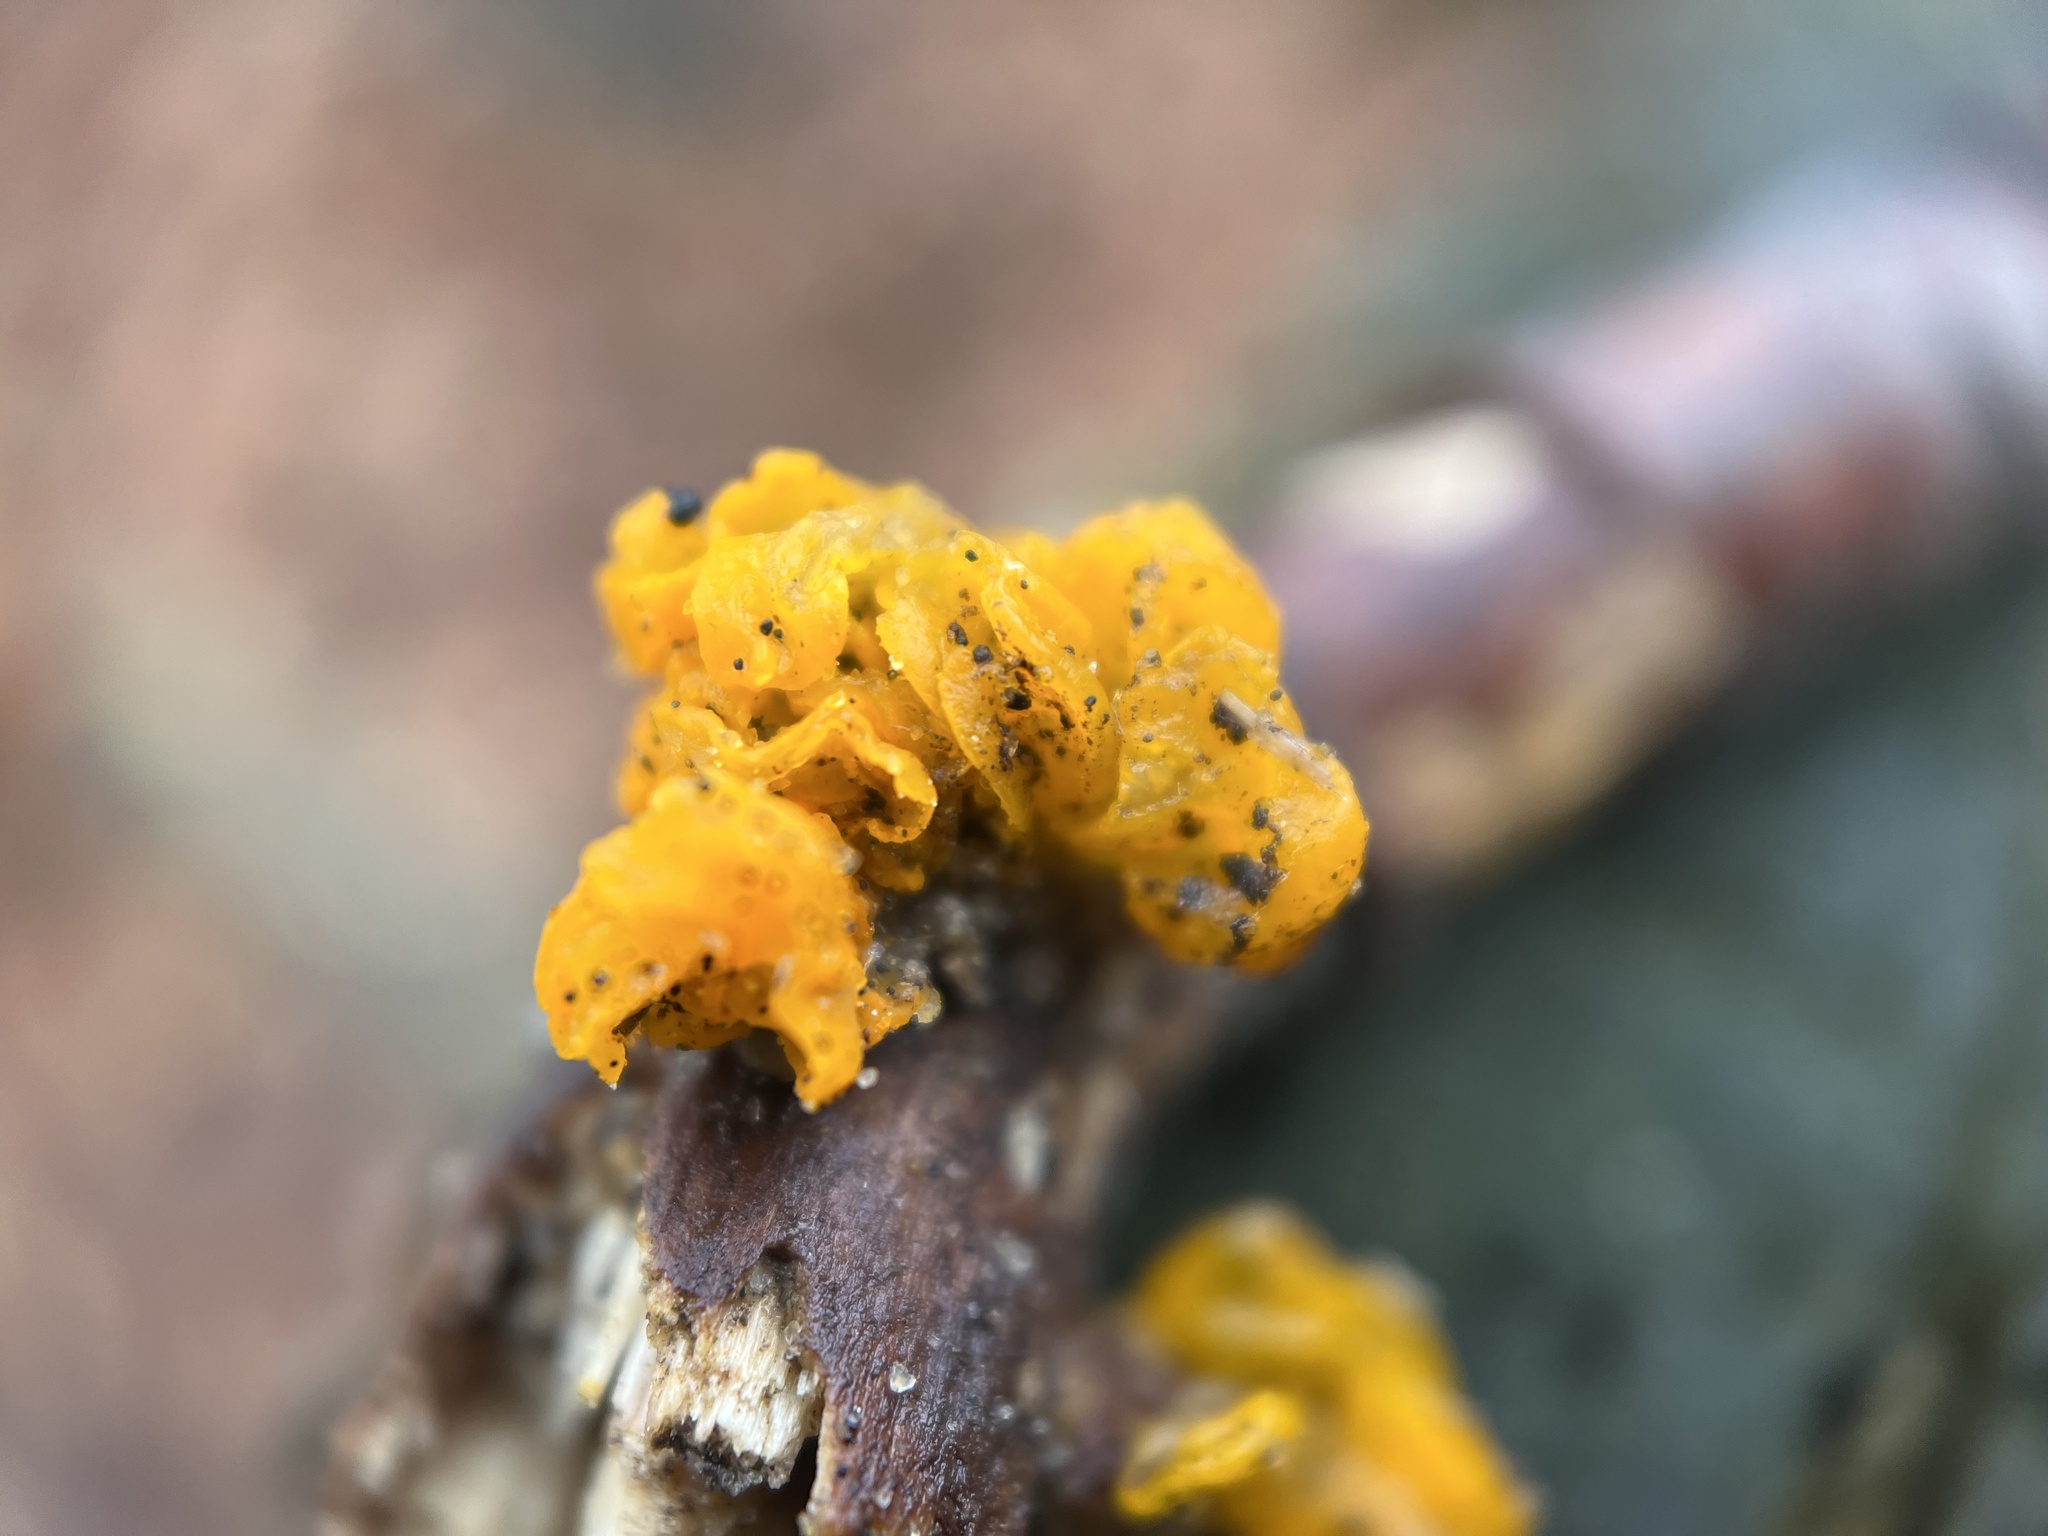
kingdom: Fungi
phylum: Basidiomycota
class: Tremellomycetes
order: Tremellales
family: Tremellaceae
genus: Tremella
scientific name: Tremella mesenterica
